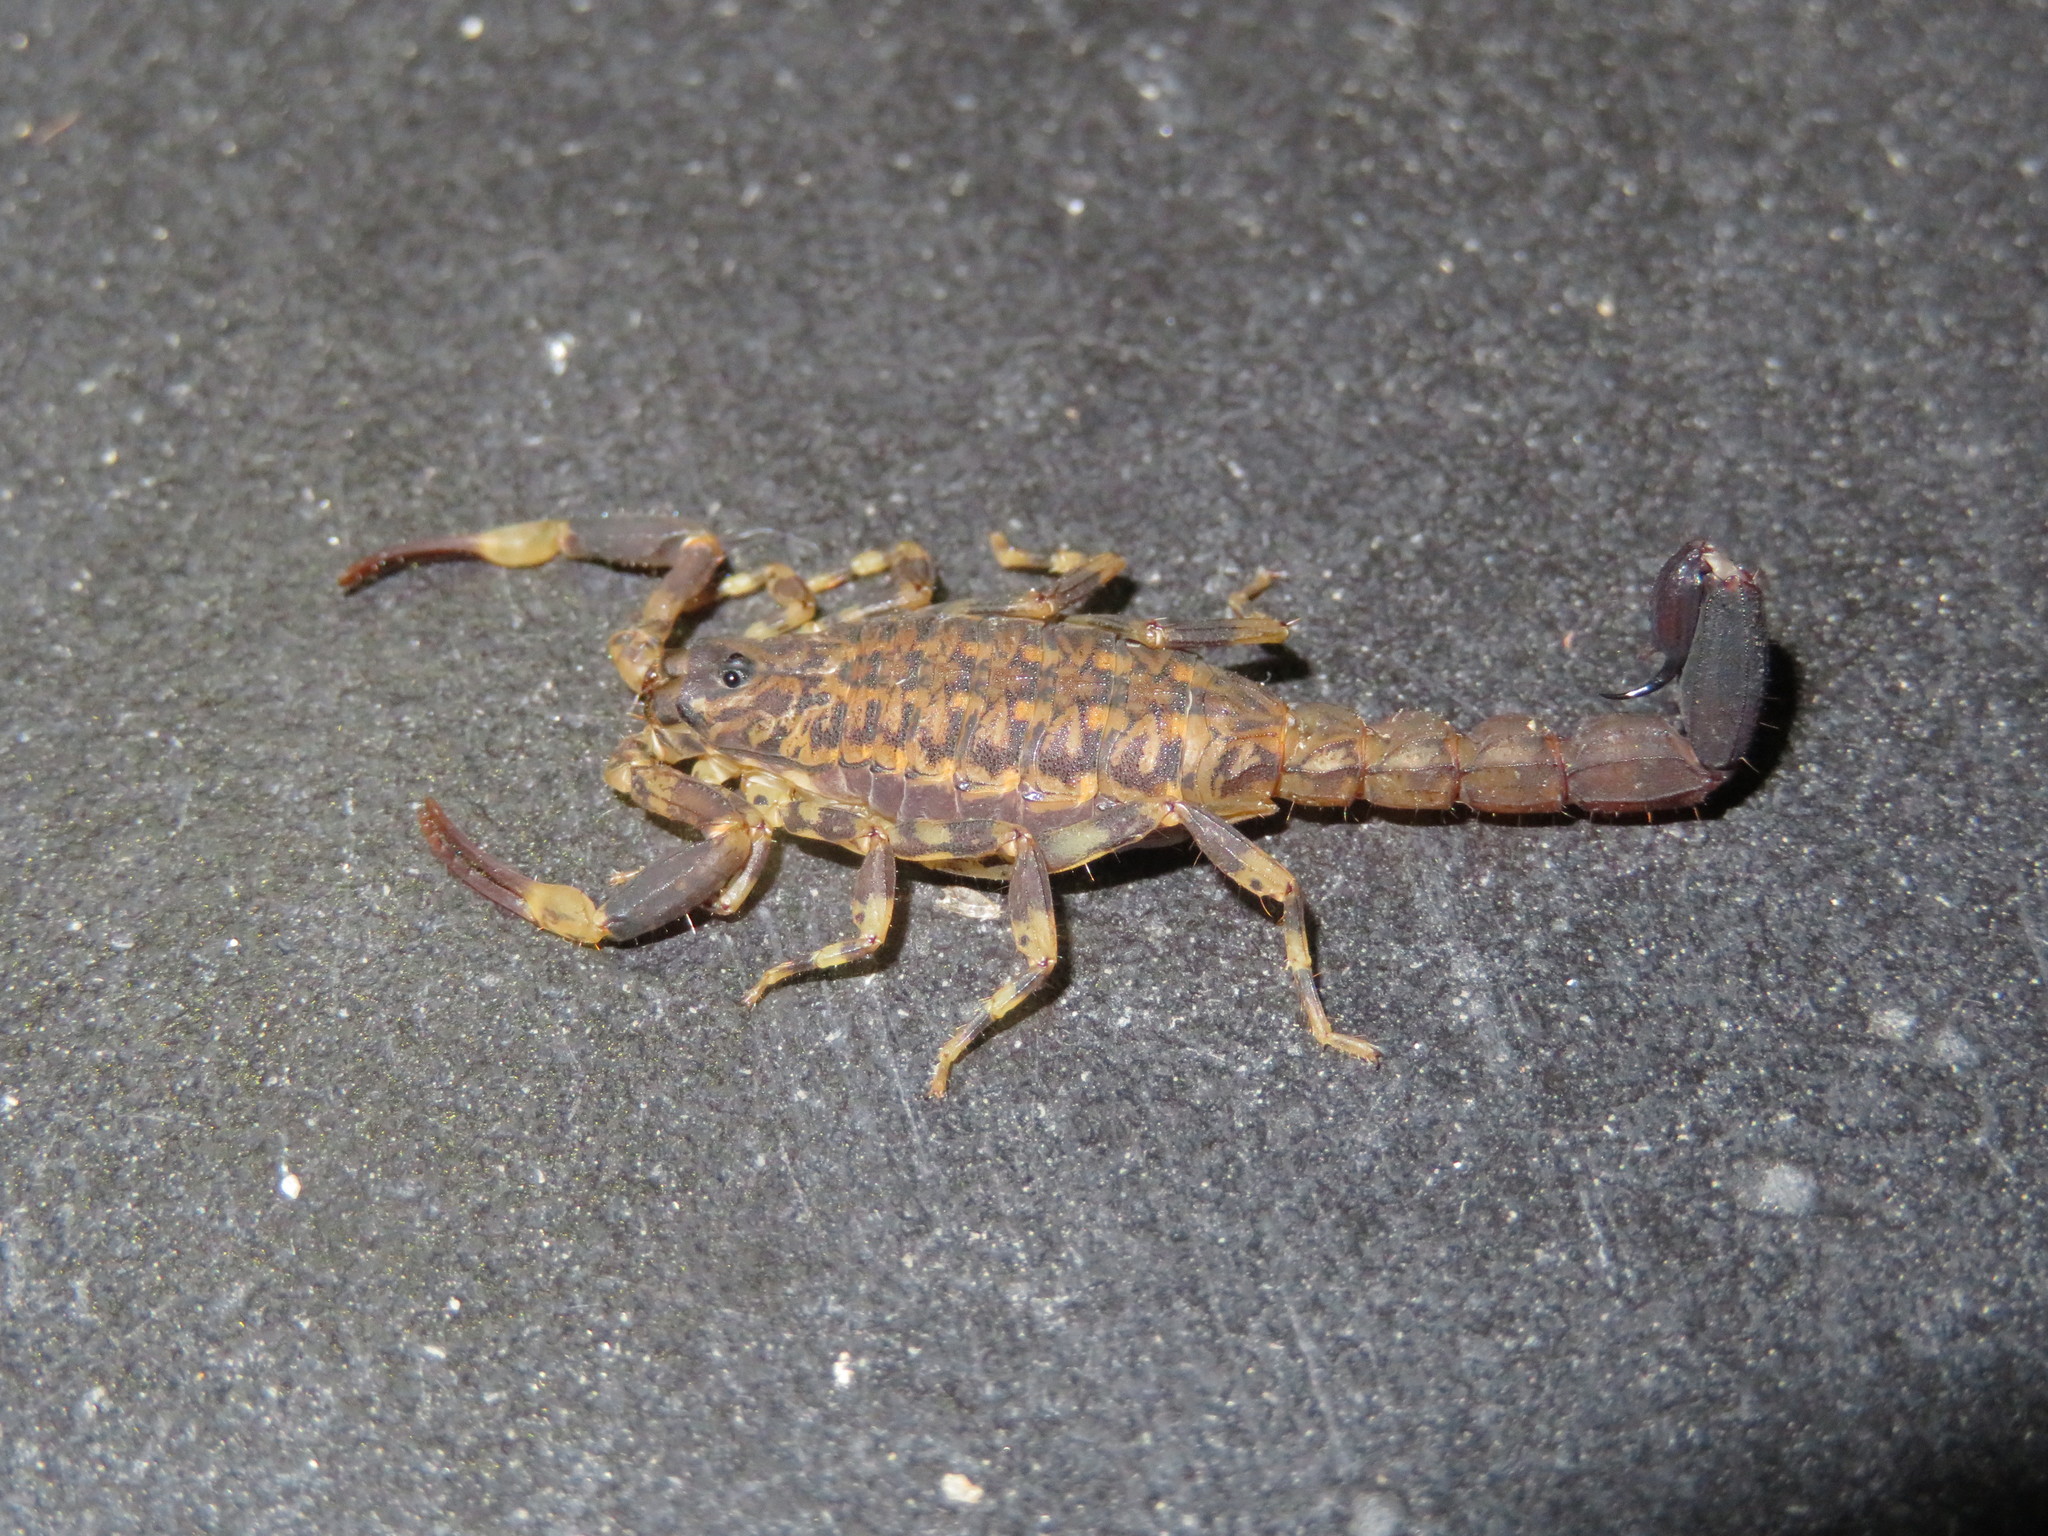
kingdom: Animalia
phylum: Arthropoda
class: Arachnida
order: Scorpiones
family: Buthidae
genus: Afrolychas
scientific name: Afrolychas burdoi
